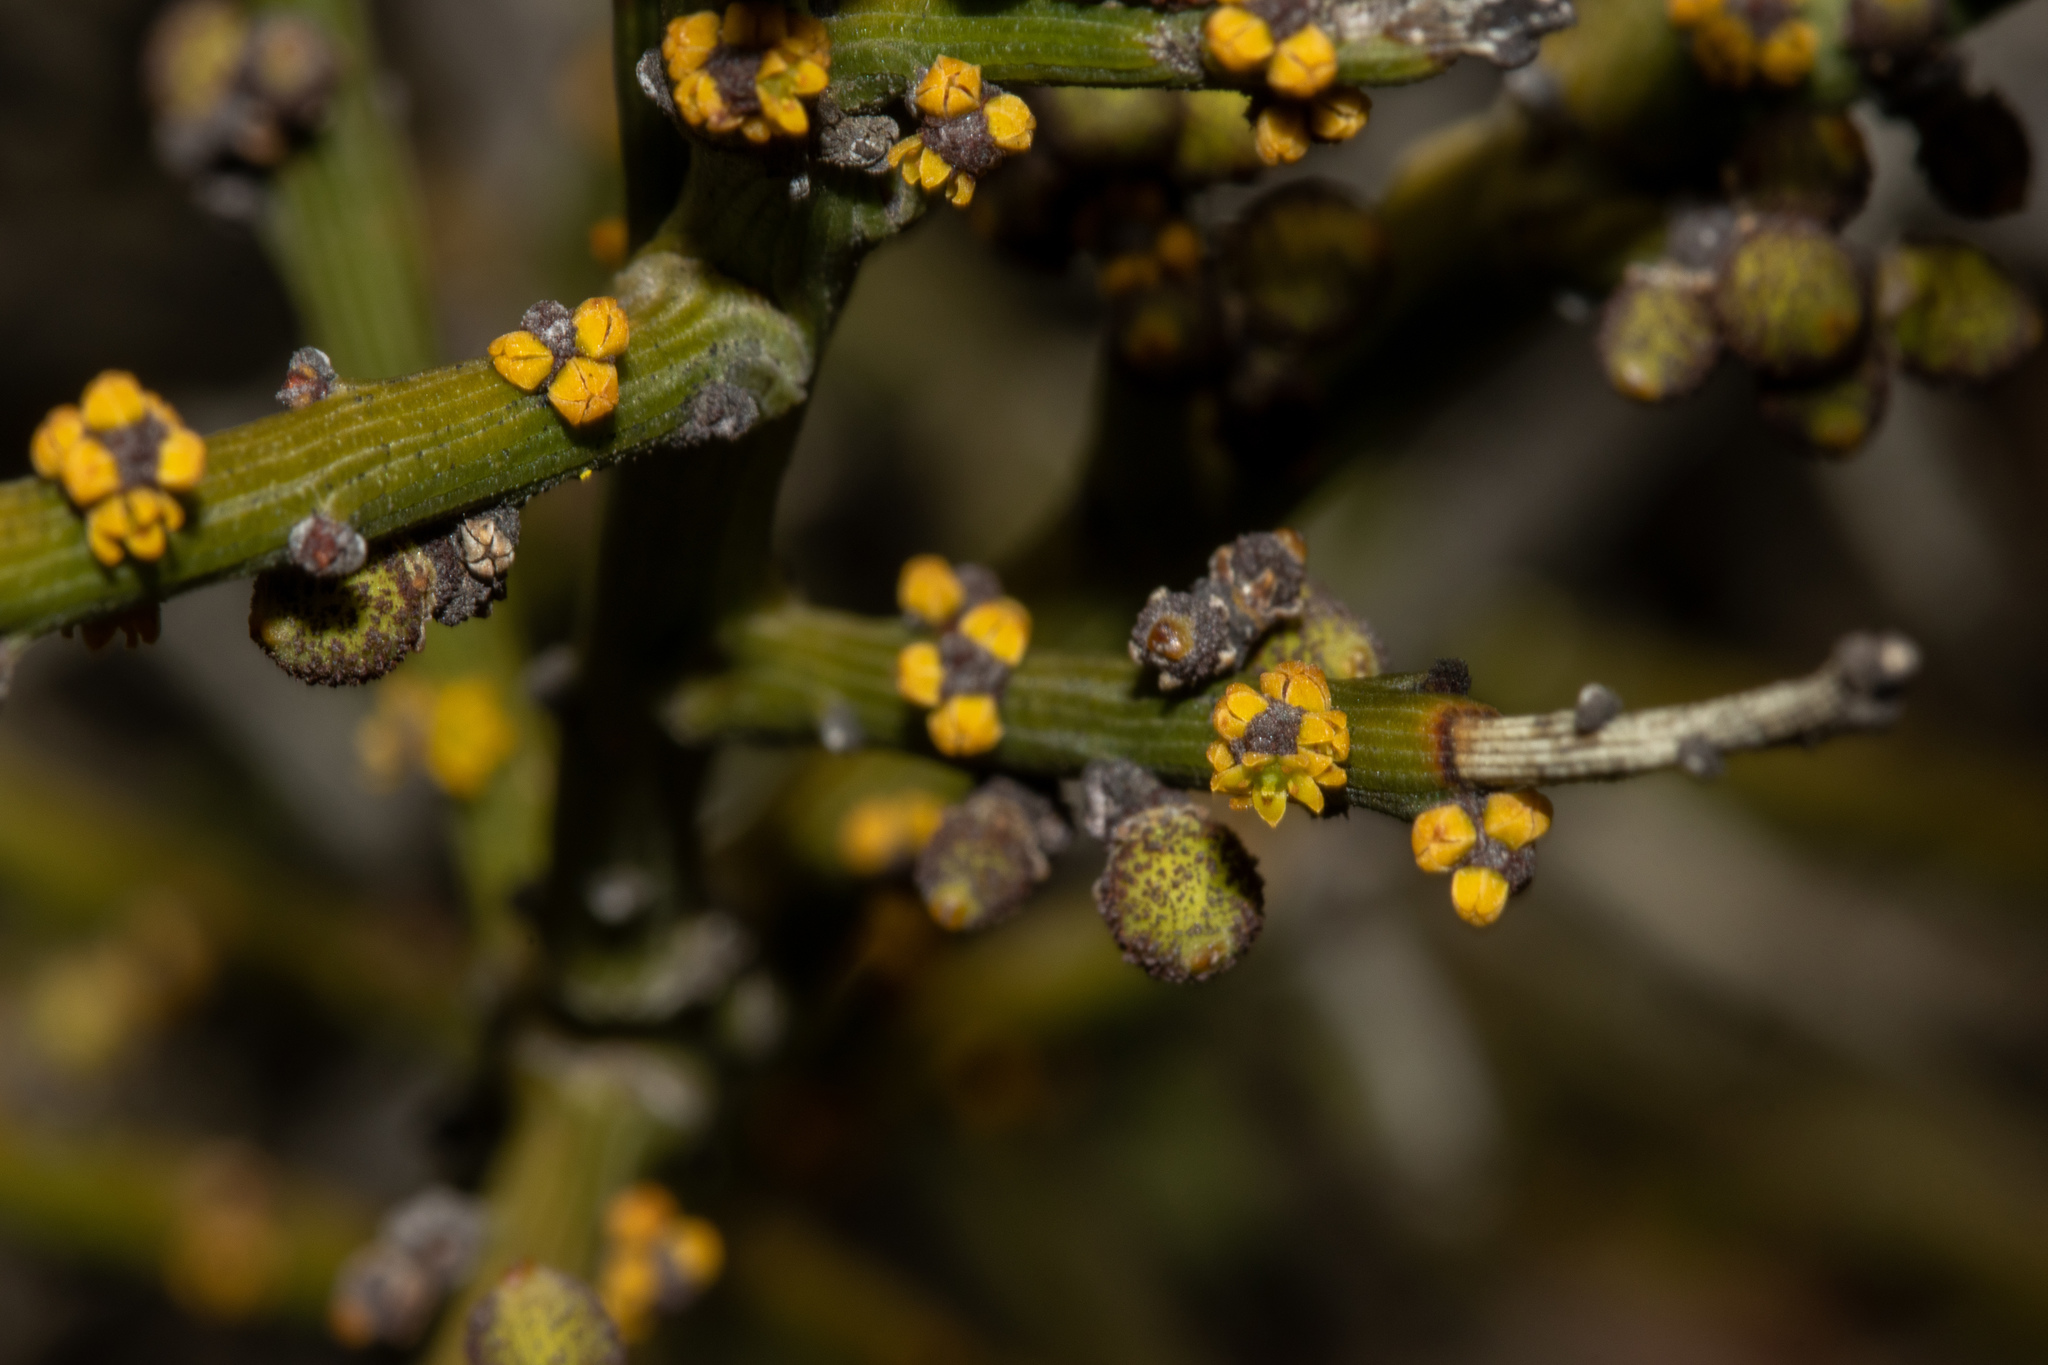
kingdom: Plantae
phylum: Tracheophyta
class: Magnoliopsida
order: Santalales
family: Santalaceae
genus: Exocarpos
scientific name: Exocarpos aphyllus
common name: Leafless ballart
